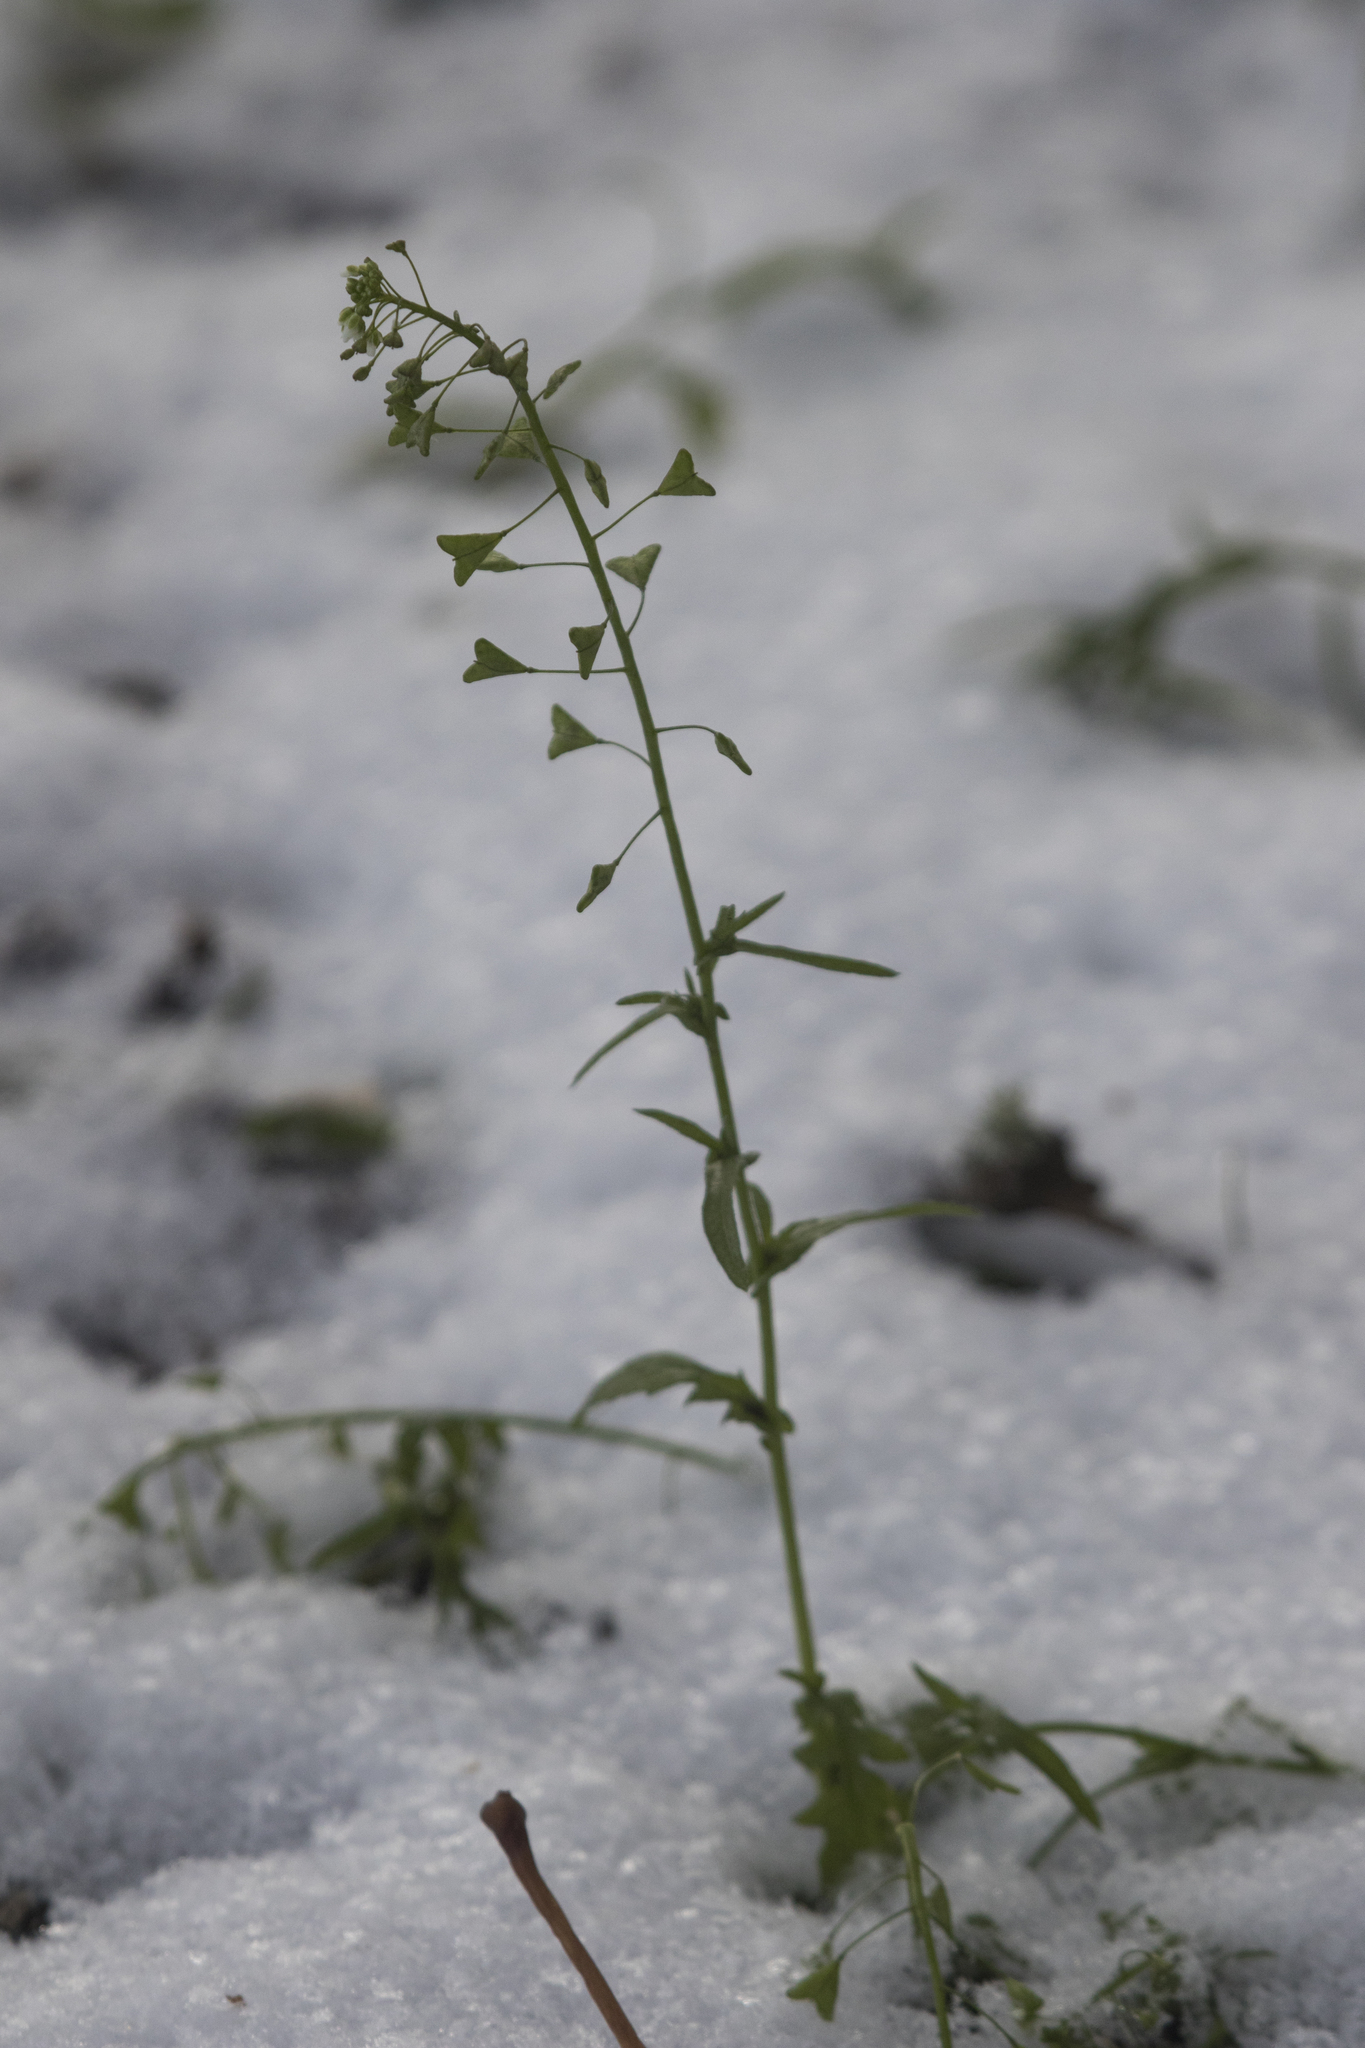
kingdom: Plantae
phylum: Tracheophyta
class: Magnoliopsida
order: Brassicales
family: Brassicaceae
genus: Capsella
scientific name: Capsella bursa-pastoris
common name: Shepherd's purse
